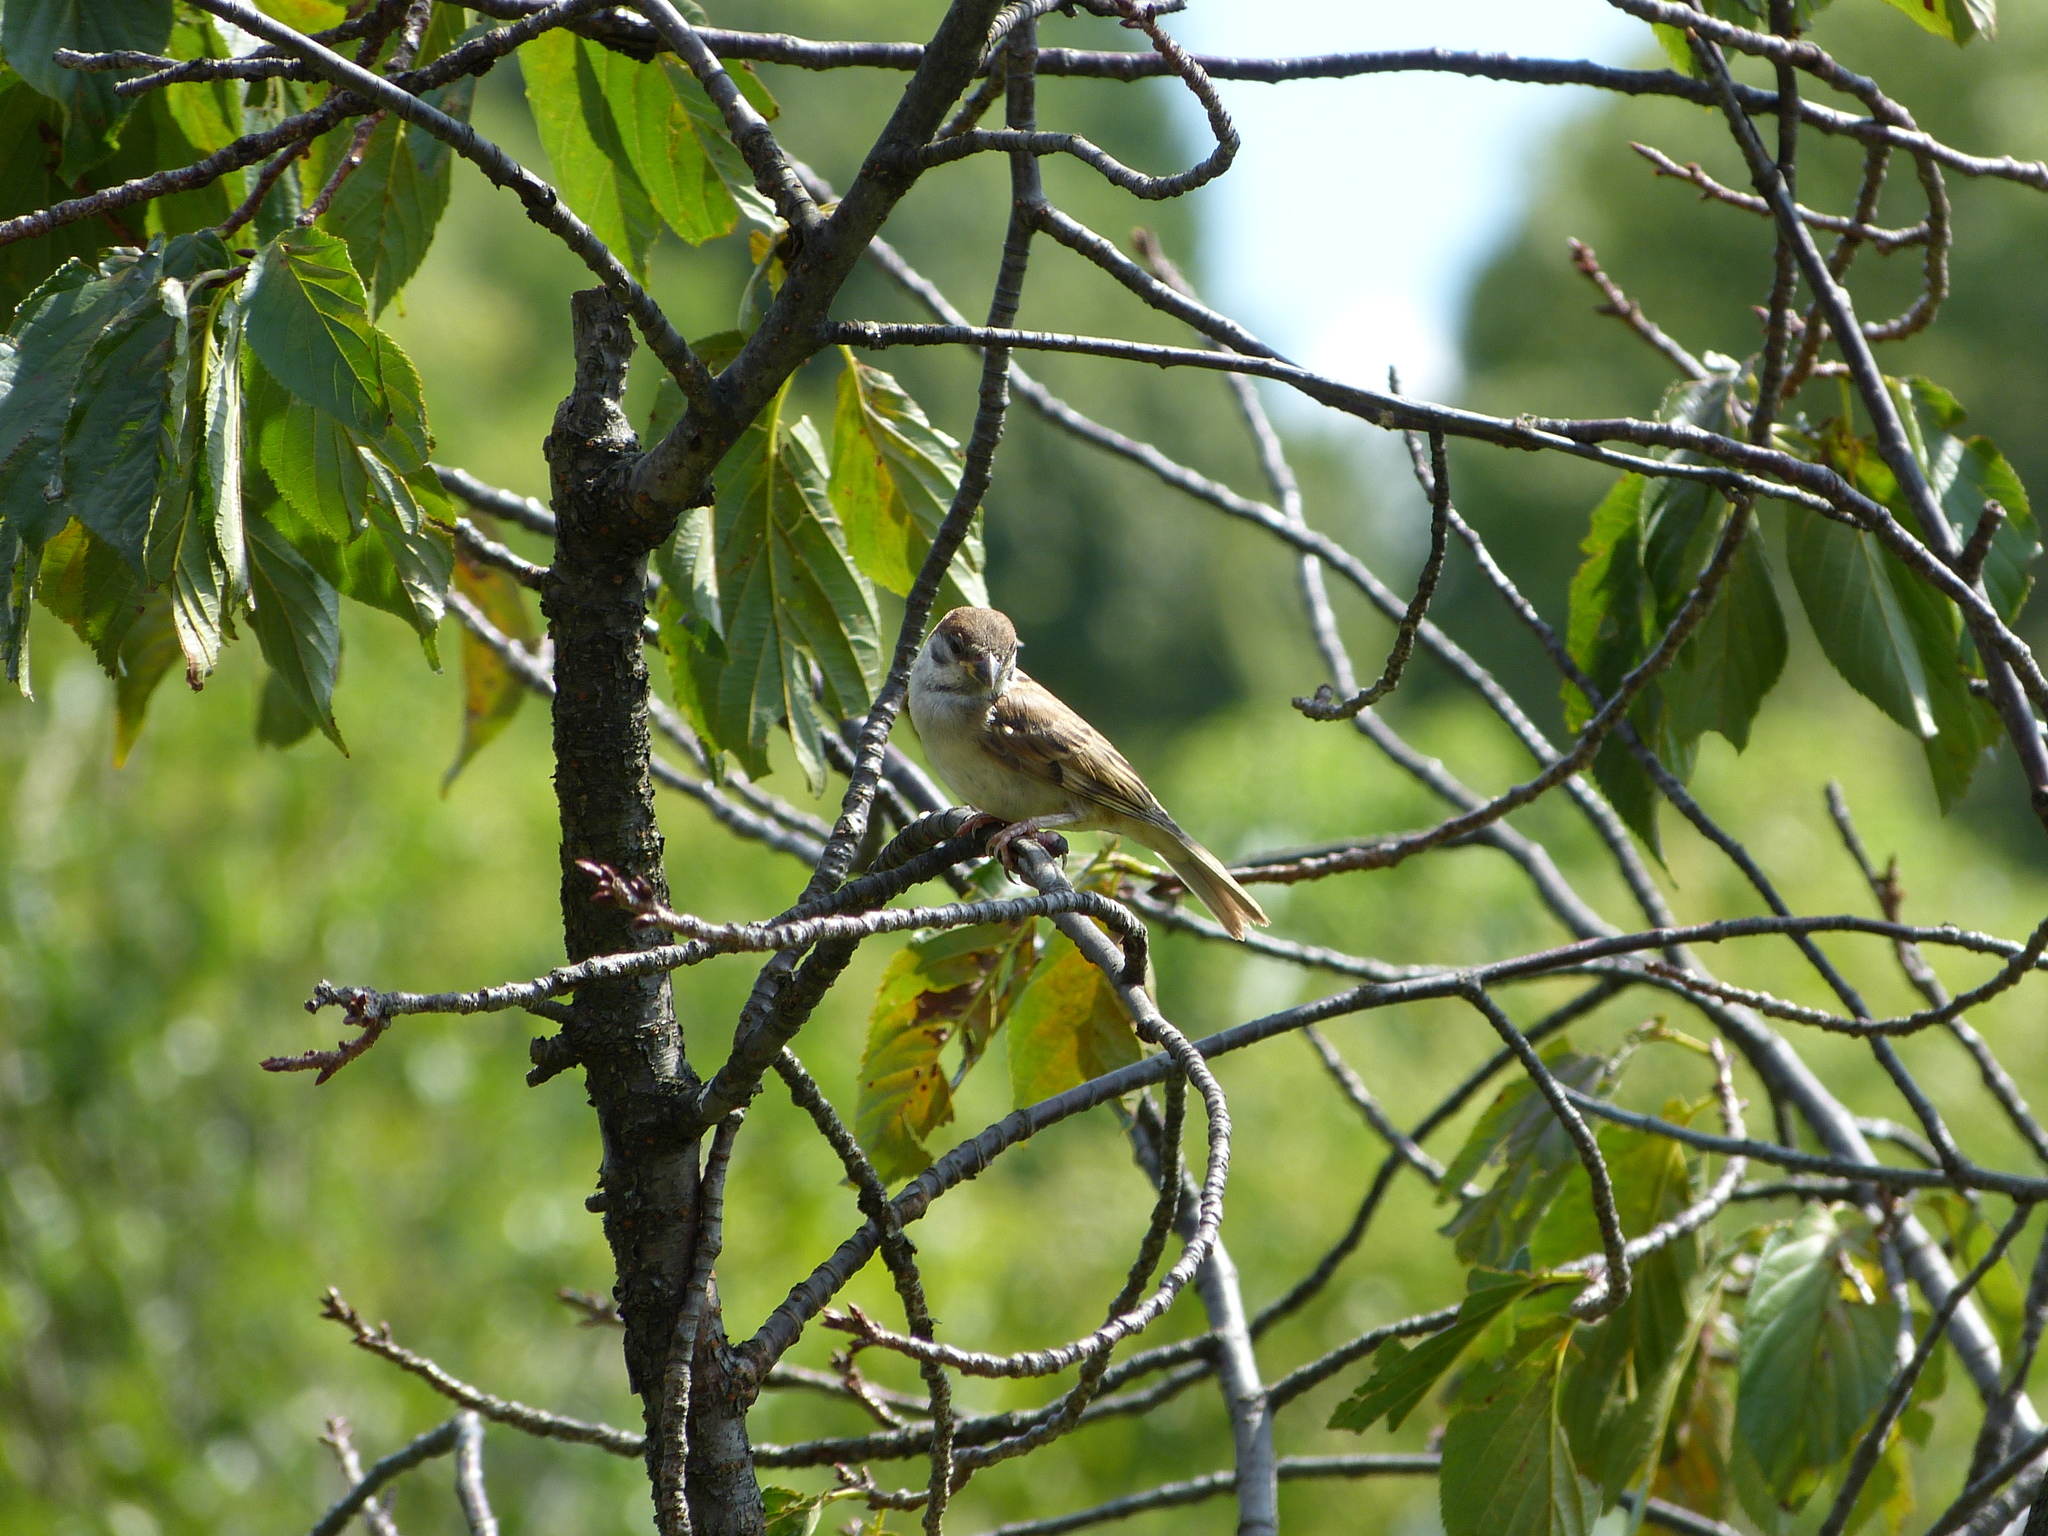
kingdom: Animalia
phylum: Chordata
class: Aves
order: Passeriformes
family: Passeridae
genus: Passer
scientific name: Passer montanus
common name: Eurasian tree sparrow
